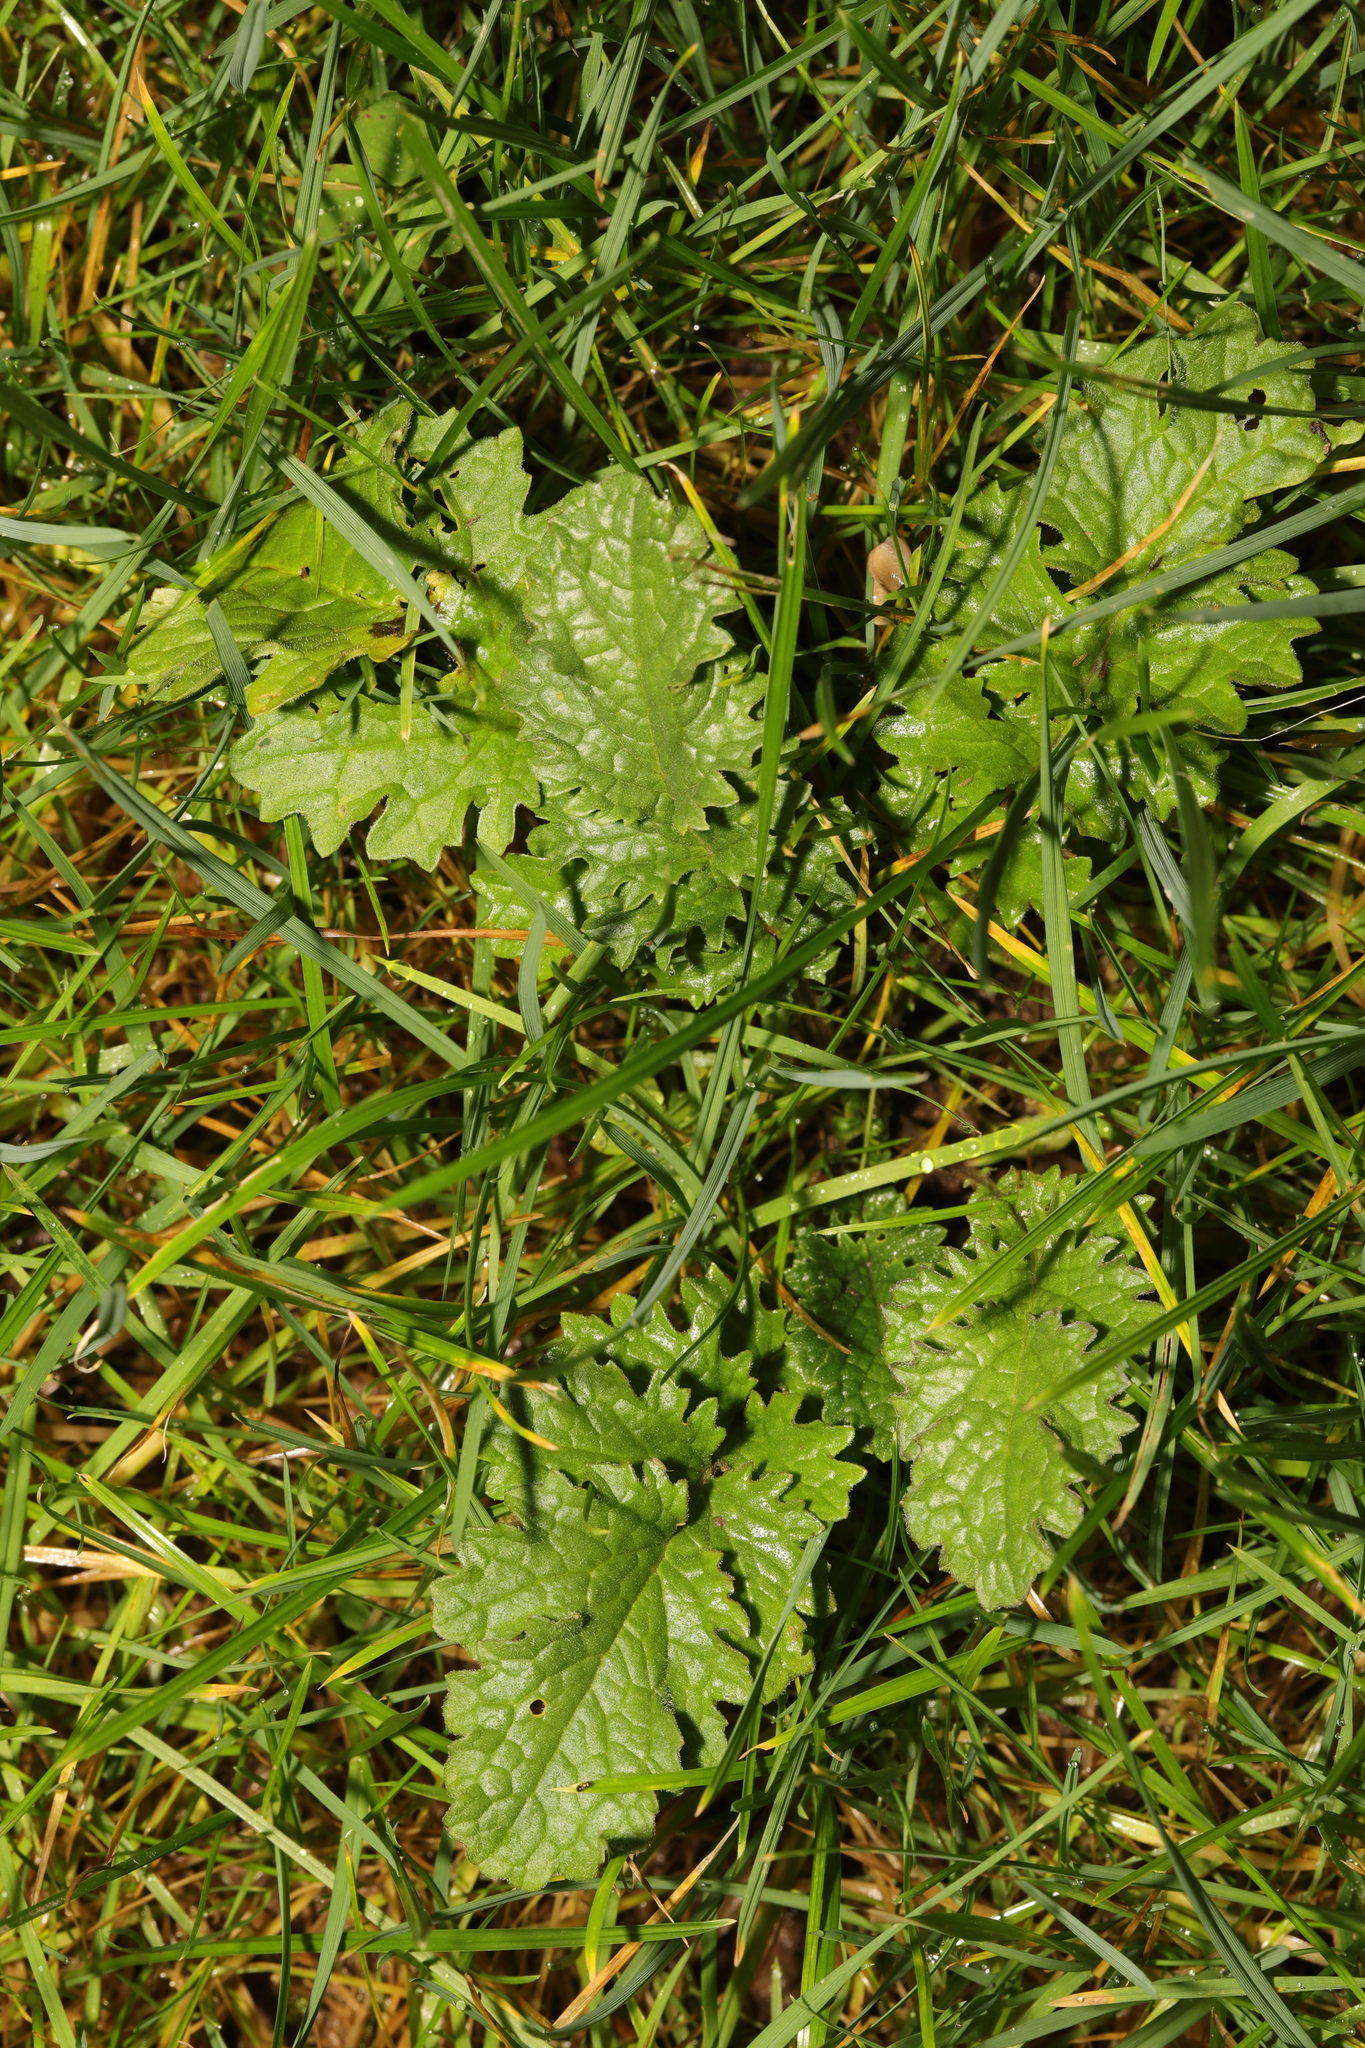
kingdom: Plantae
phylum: Tracheophyta
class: Magnoliopsida
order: Asterales
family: Asteraceae
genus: Jacobaea
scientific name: Jacobaea vulgaris
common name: Stinking willie
